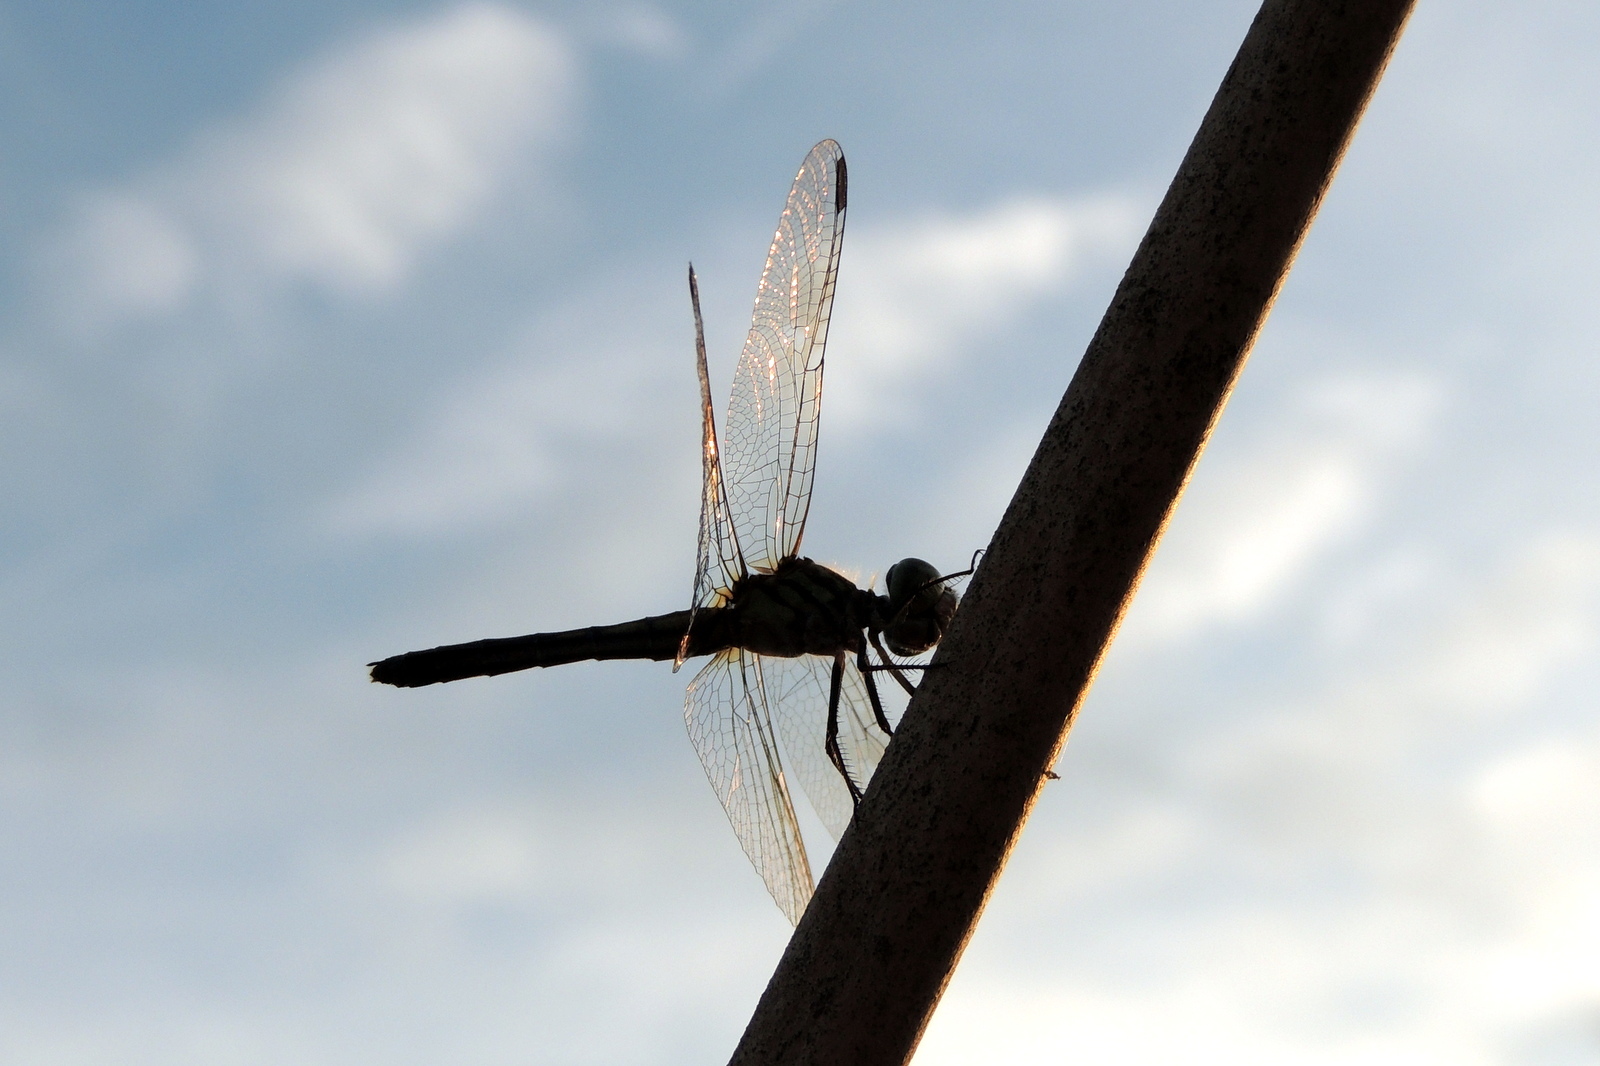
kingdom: Animalia
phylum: Arthropoda
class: Insecta
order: Odonata
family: Libellulidae
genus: Pachydiplax
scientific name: Pachydiplax longipennis
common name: Blue dasher
